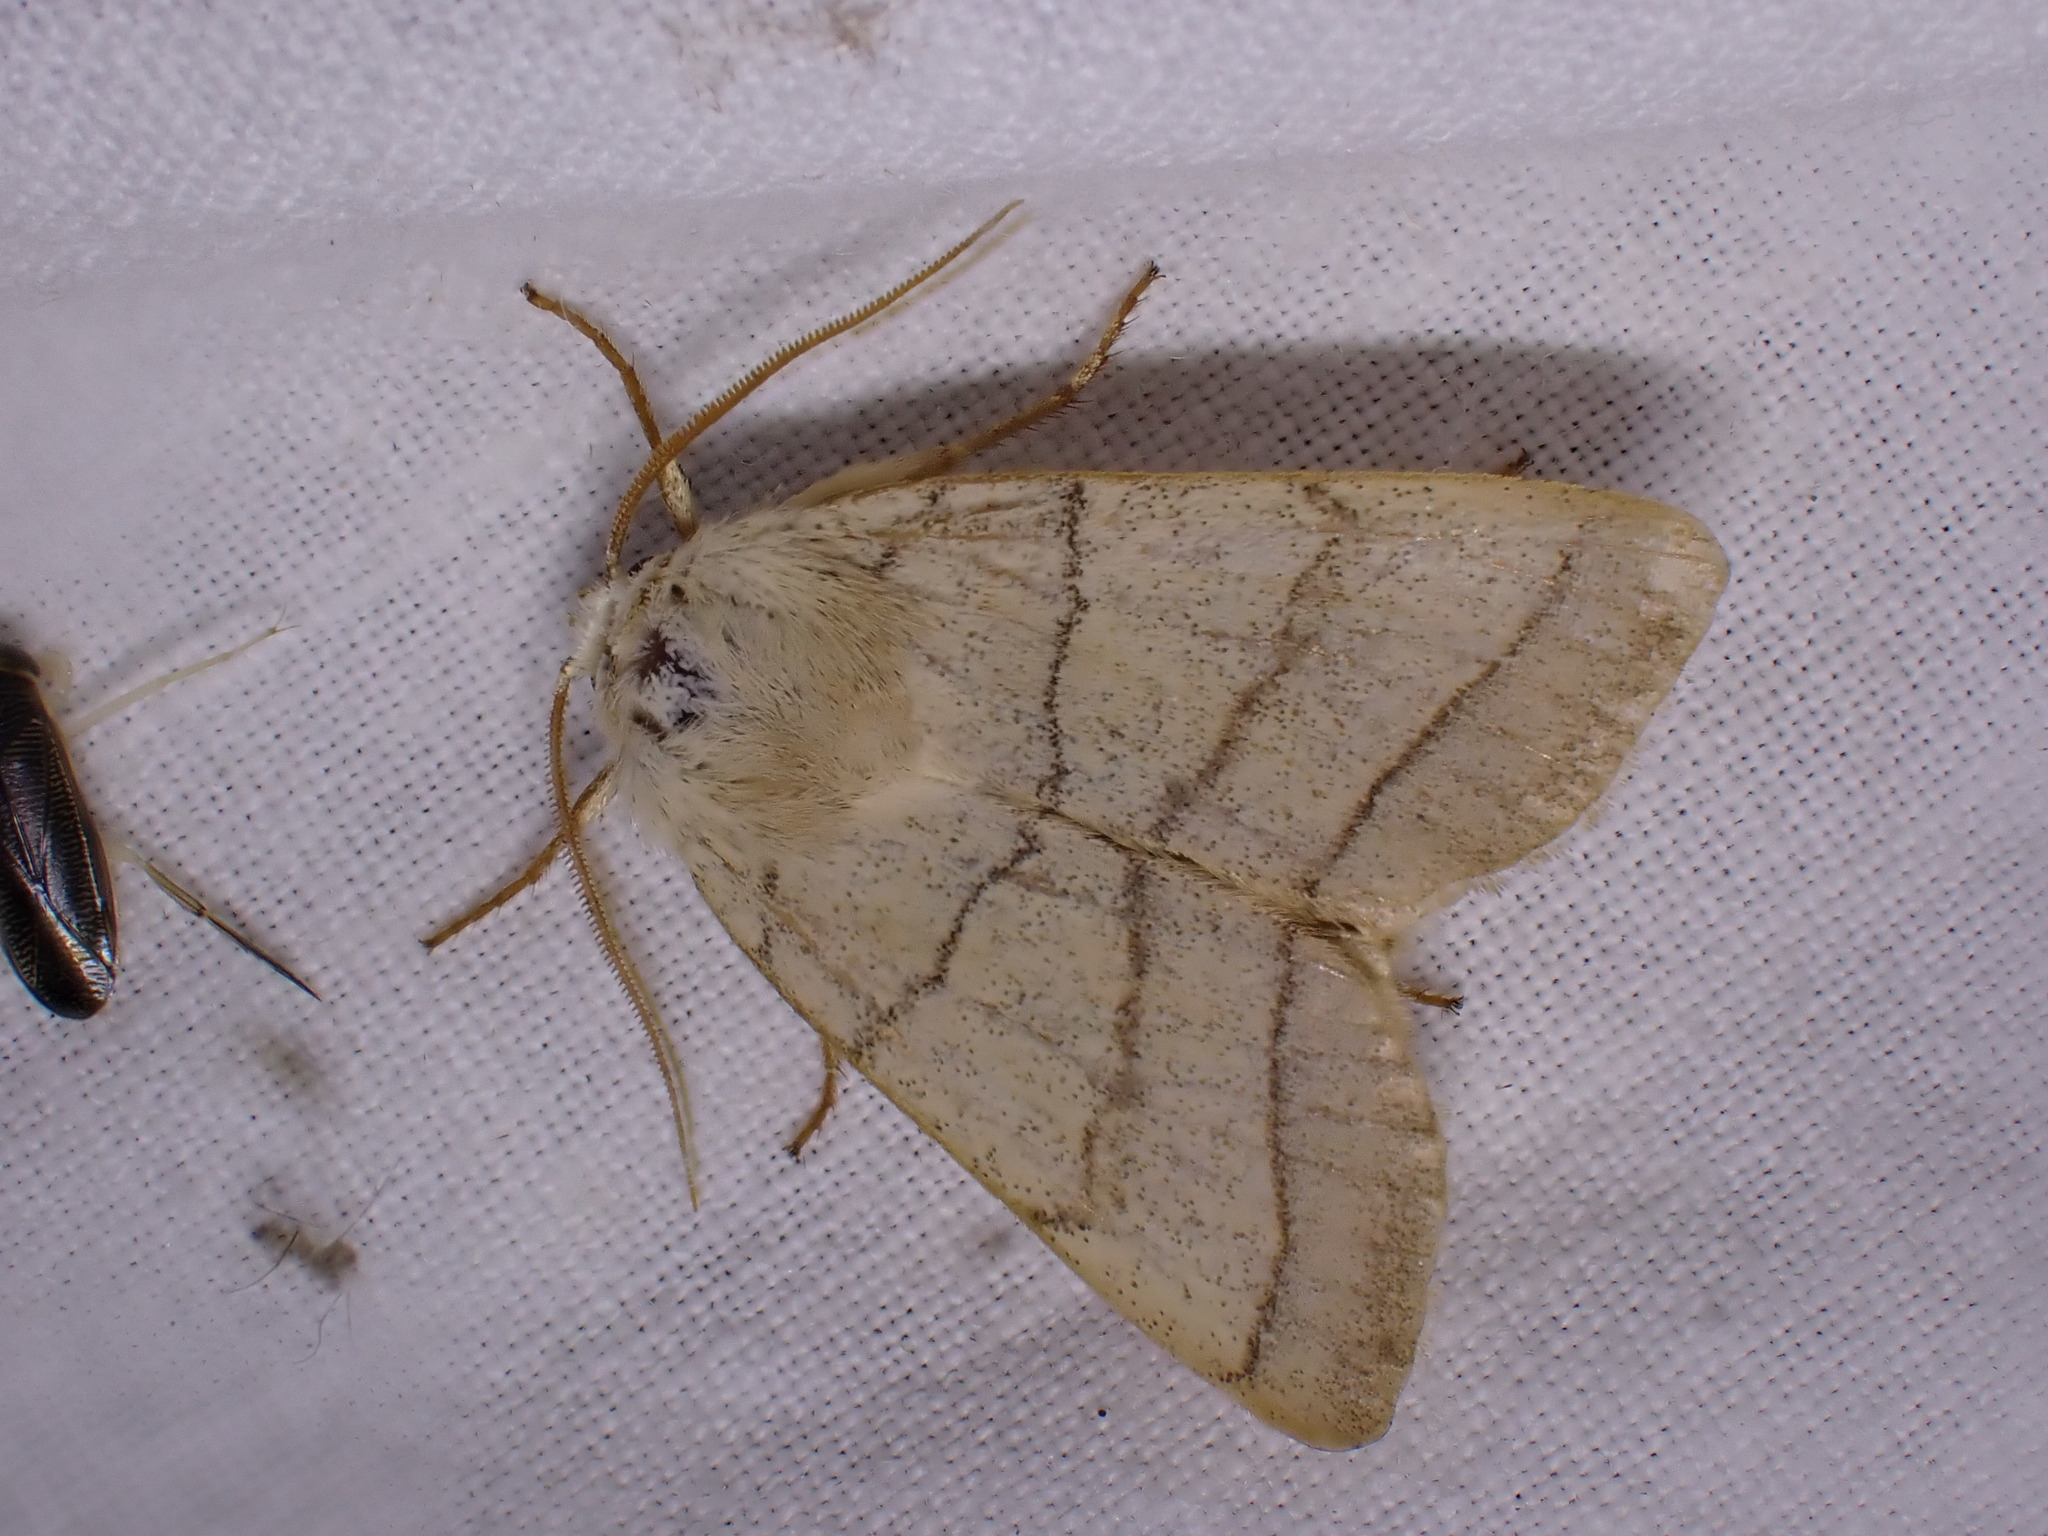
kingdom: Animalia
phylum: Arthropoda
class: Insecta
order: Lepidoptera
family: Noctuidae
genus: Charanyca
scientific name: Charanyca trigrammica
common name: Treble lines
